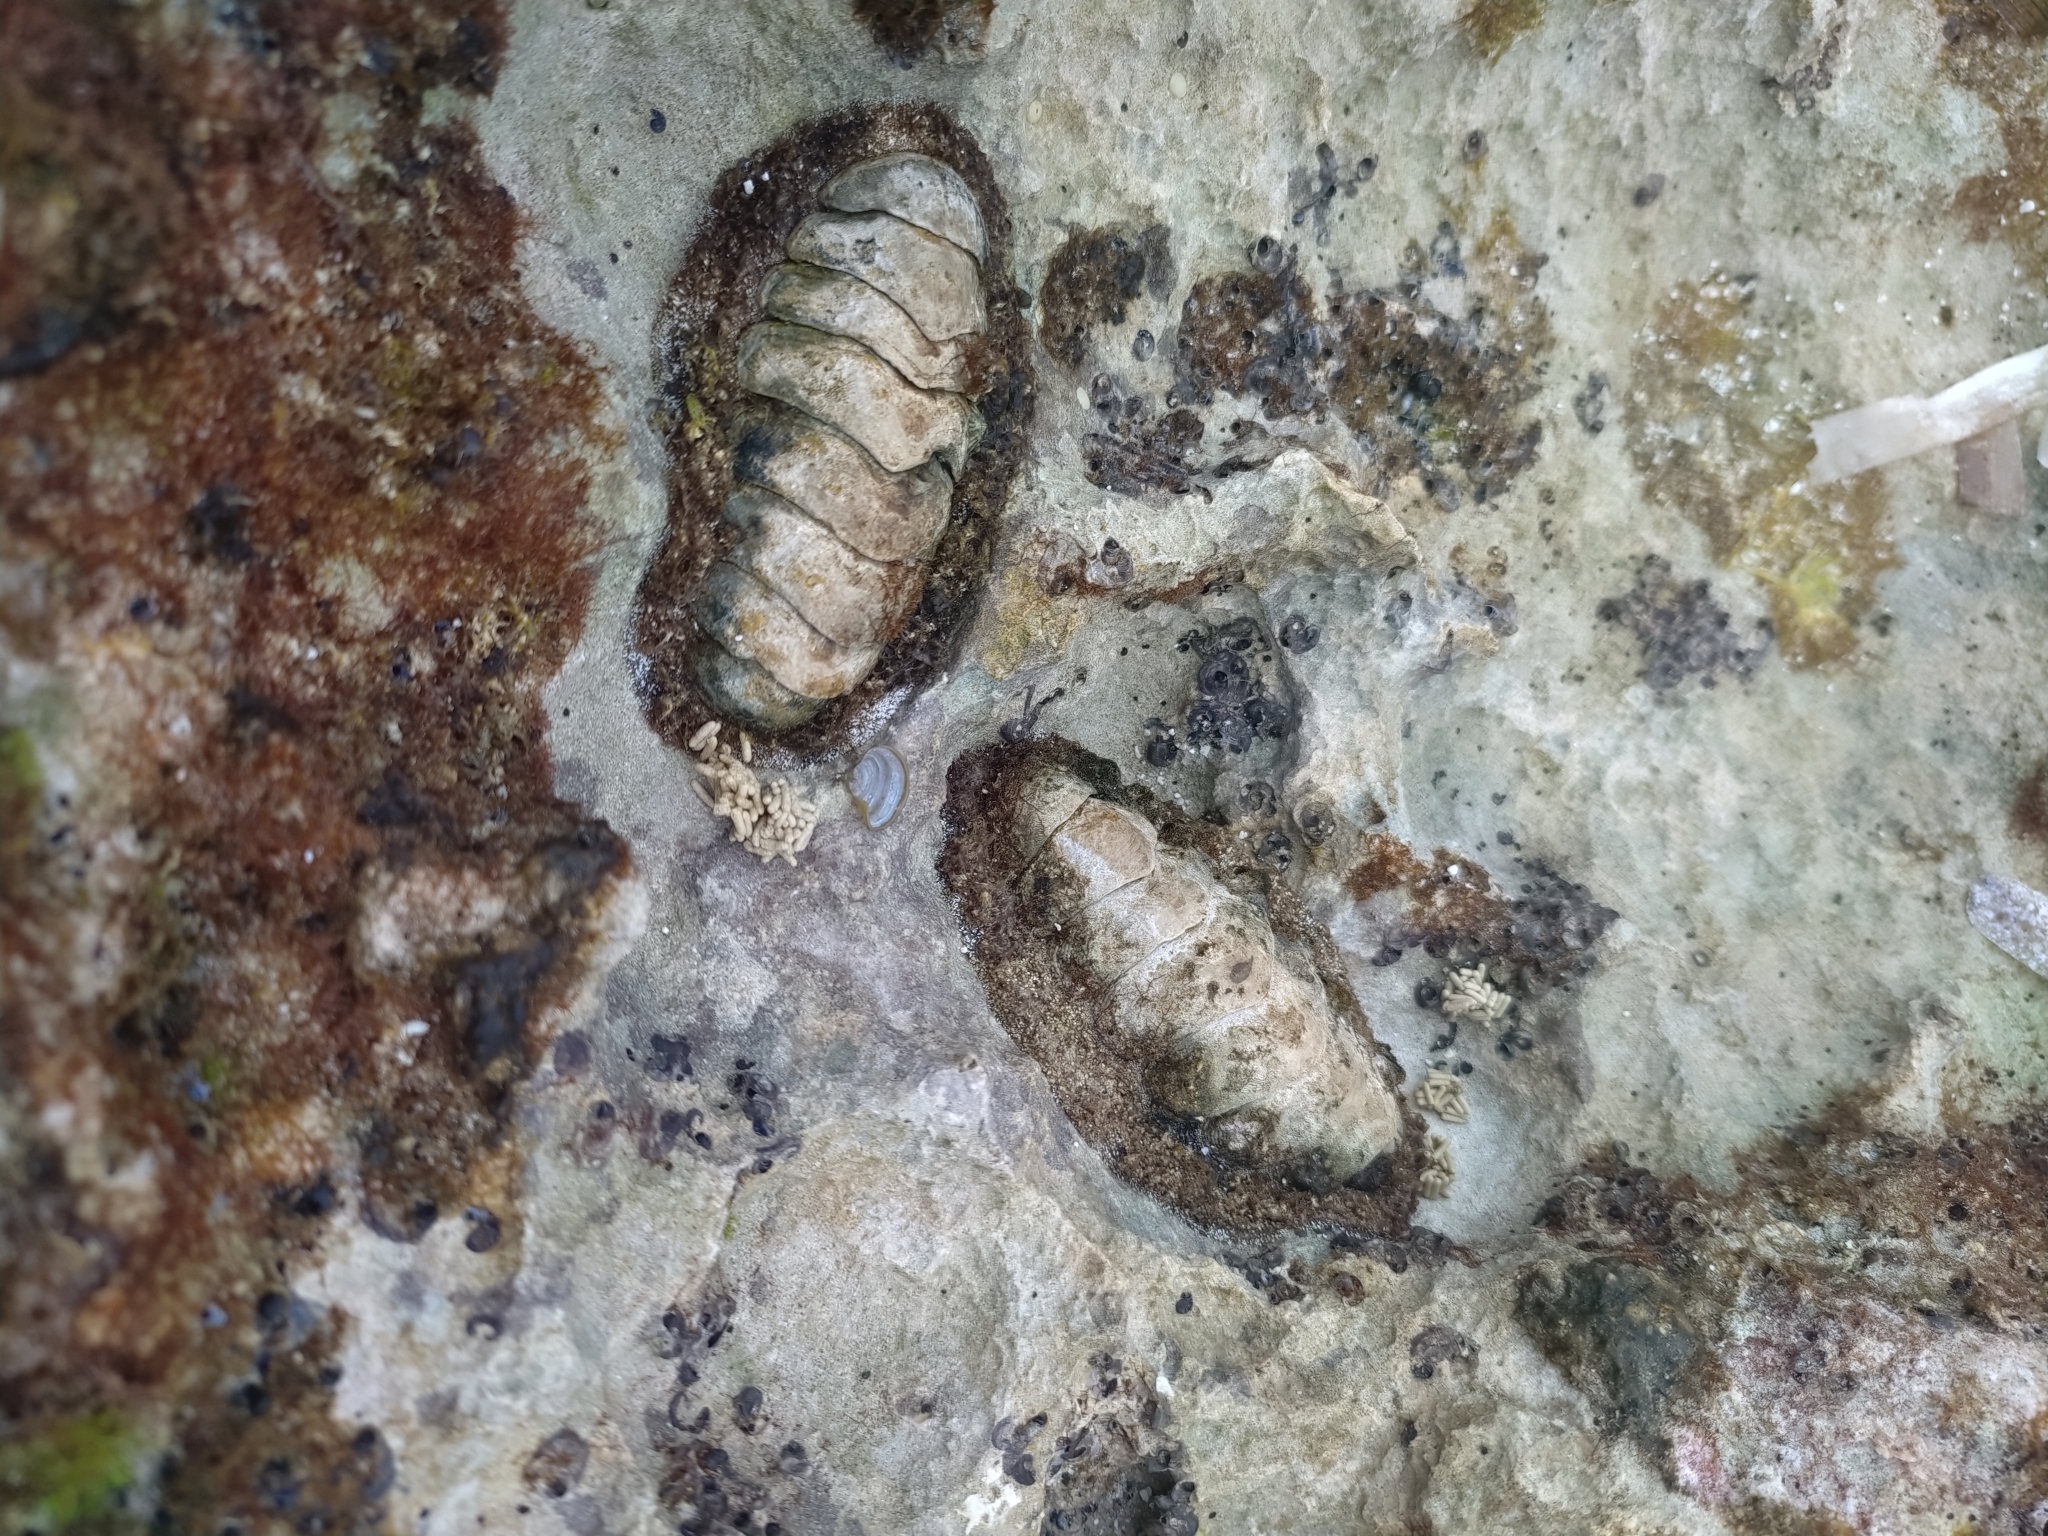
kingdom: Animalia
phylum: Mollusca
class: Polyplacophora
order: Chitonida
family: Chitonidae
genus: Acanthopleura
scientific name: Acanthopleura granulata
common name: West indian fuzzy chiton
